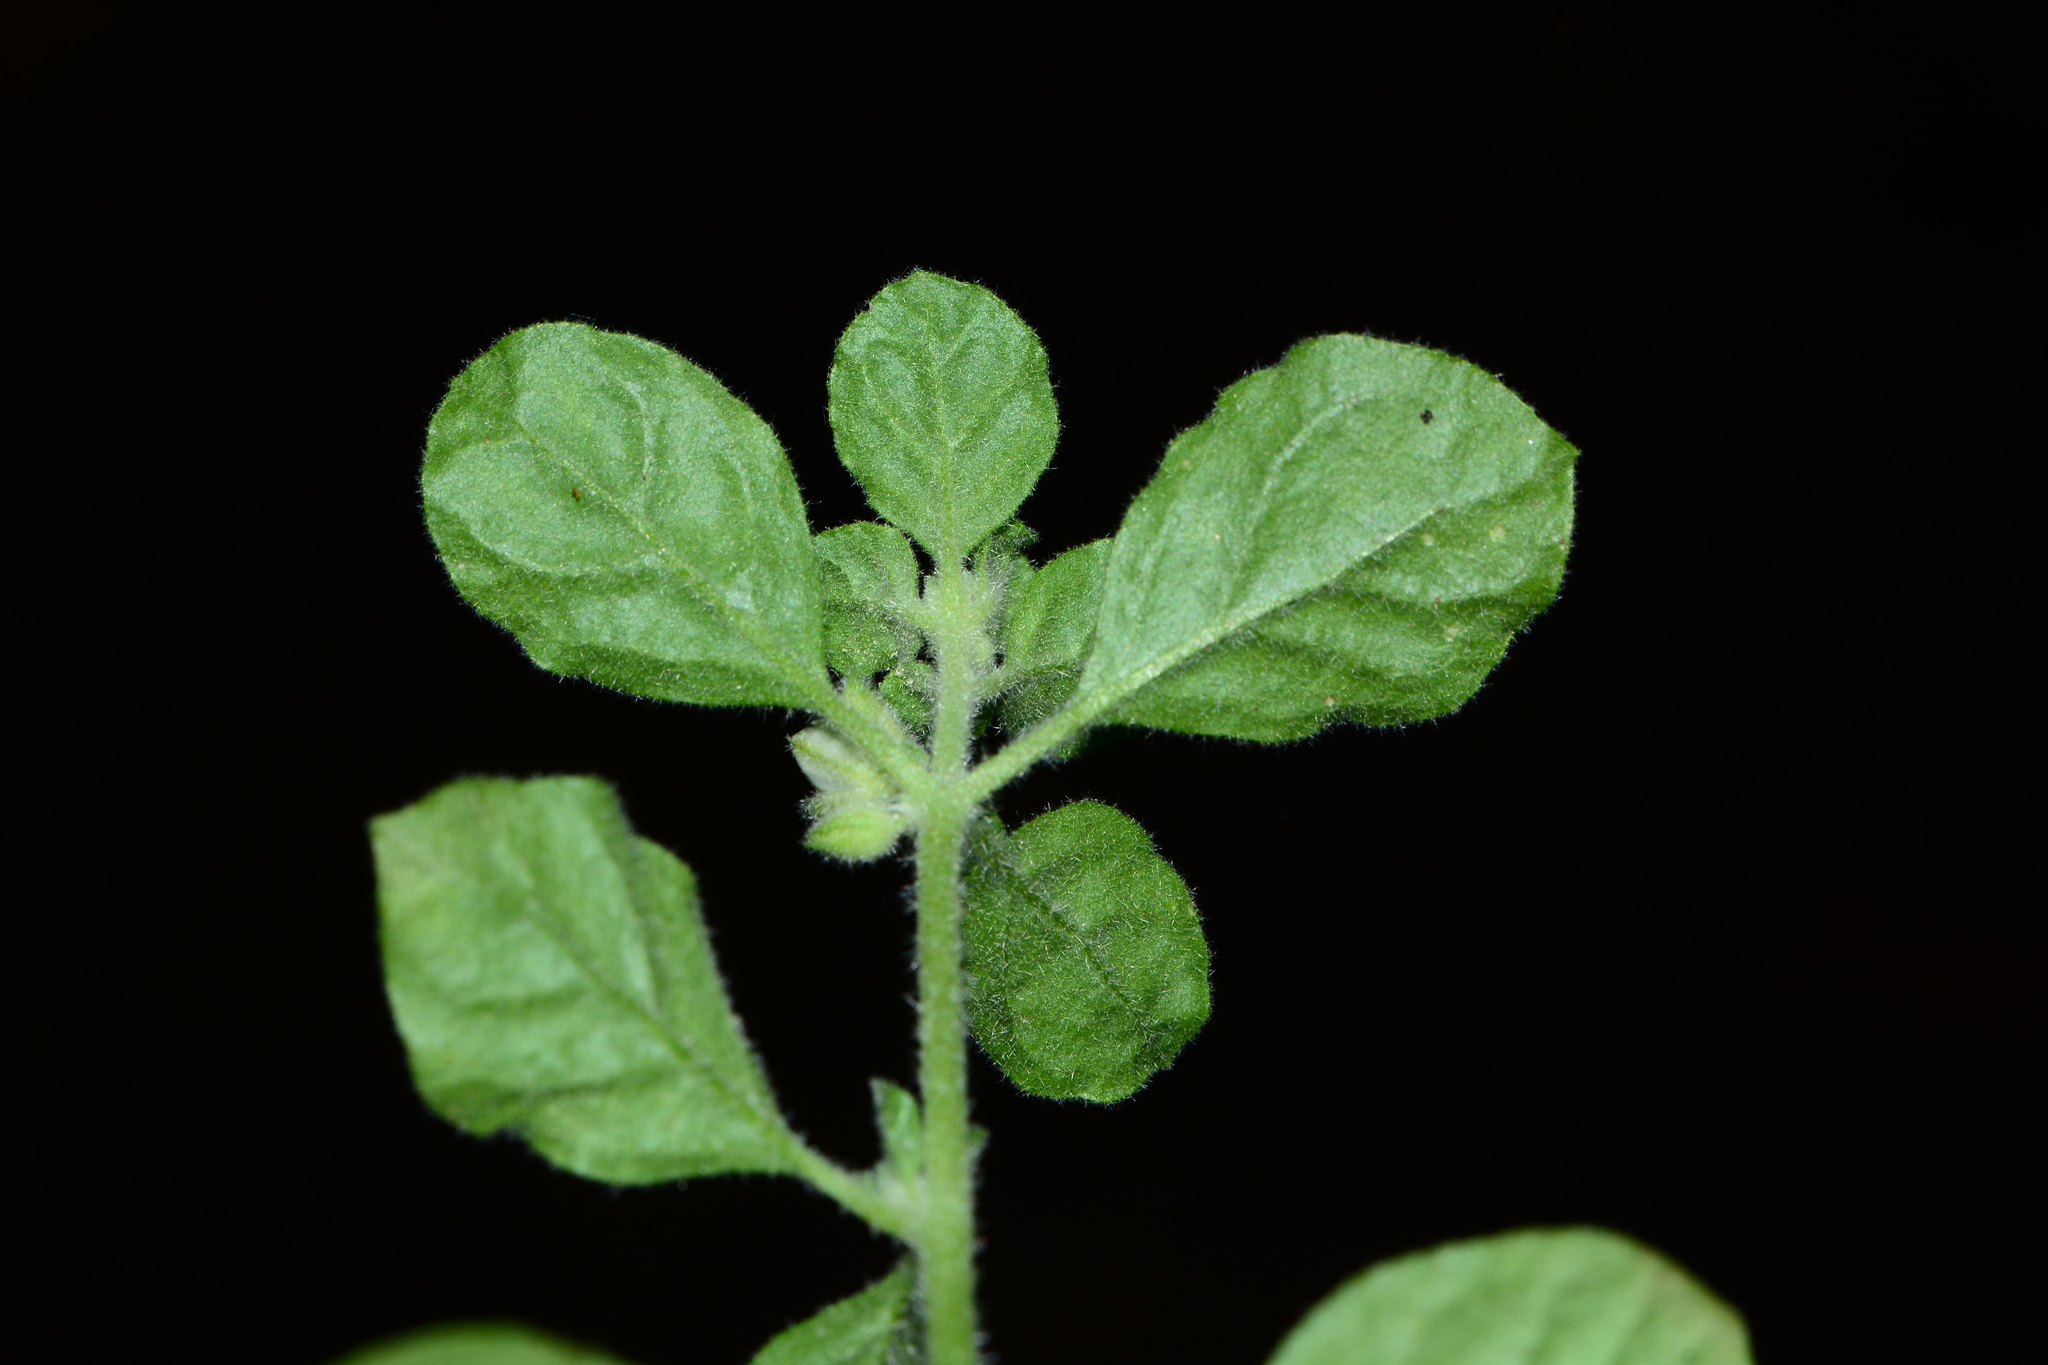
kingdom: Plantae
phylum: Tracheophyta
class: Magnoliopsida
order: Caryophyllales
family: Molluginaceae
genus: Glinus
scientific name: Glinus lotoides
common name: Lotus sweetjuice
